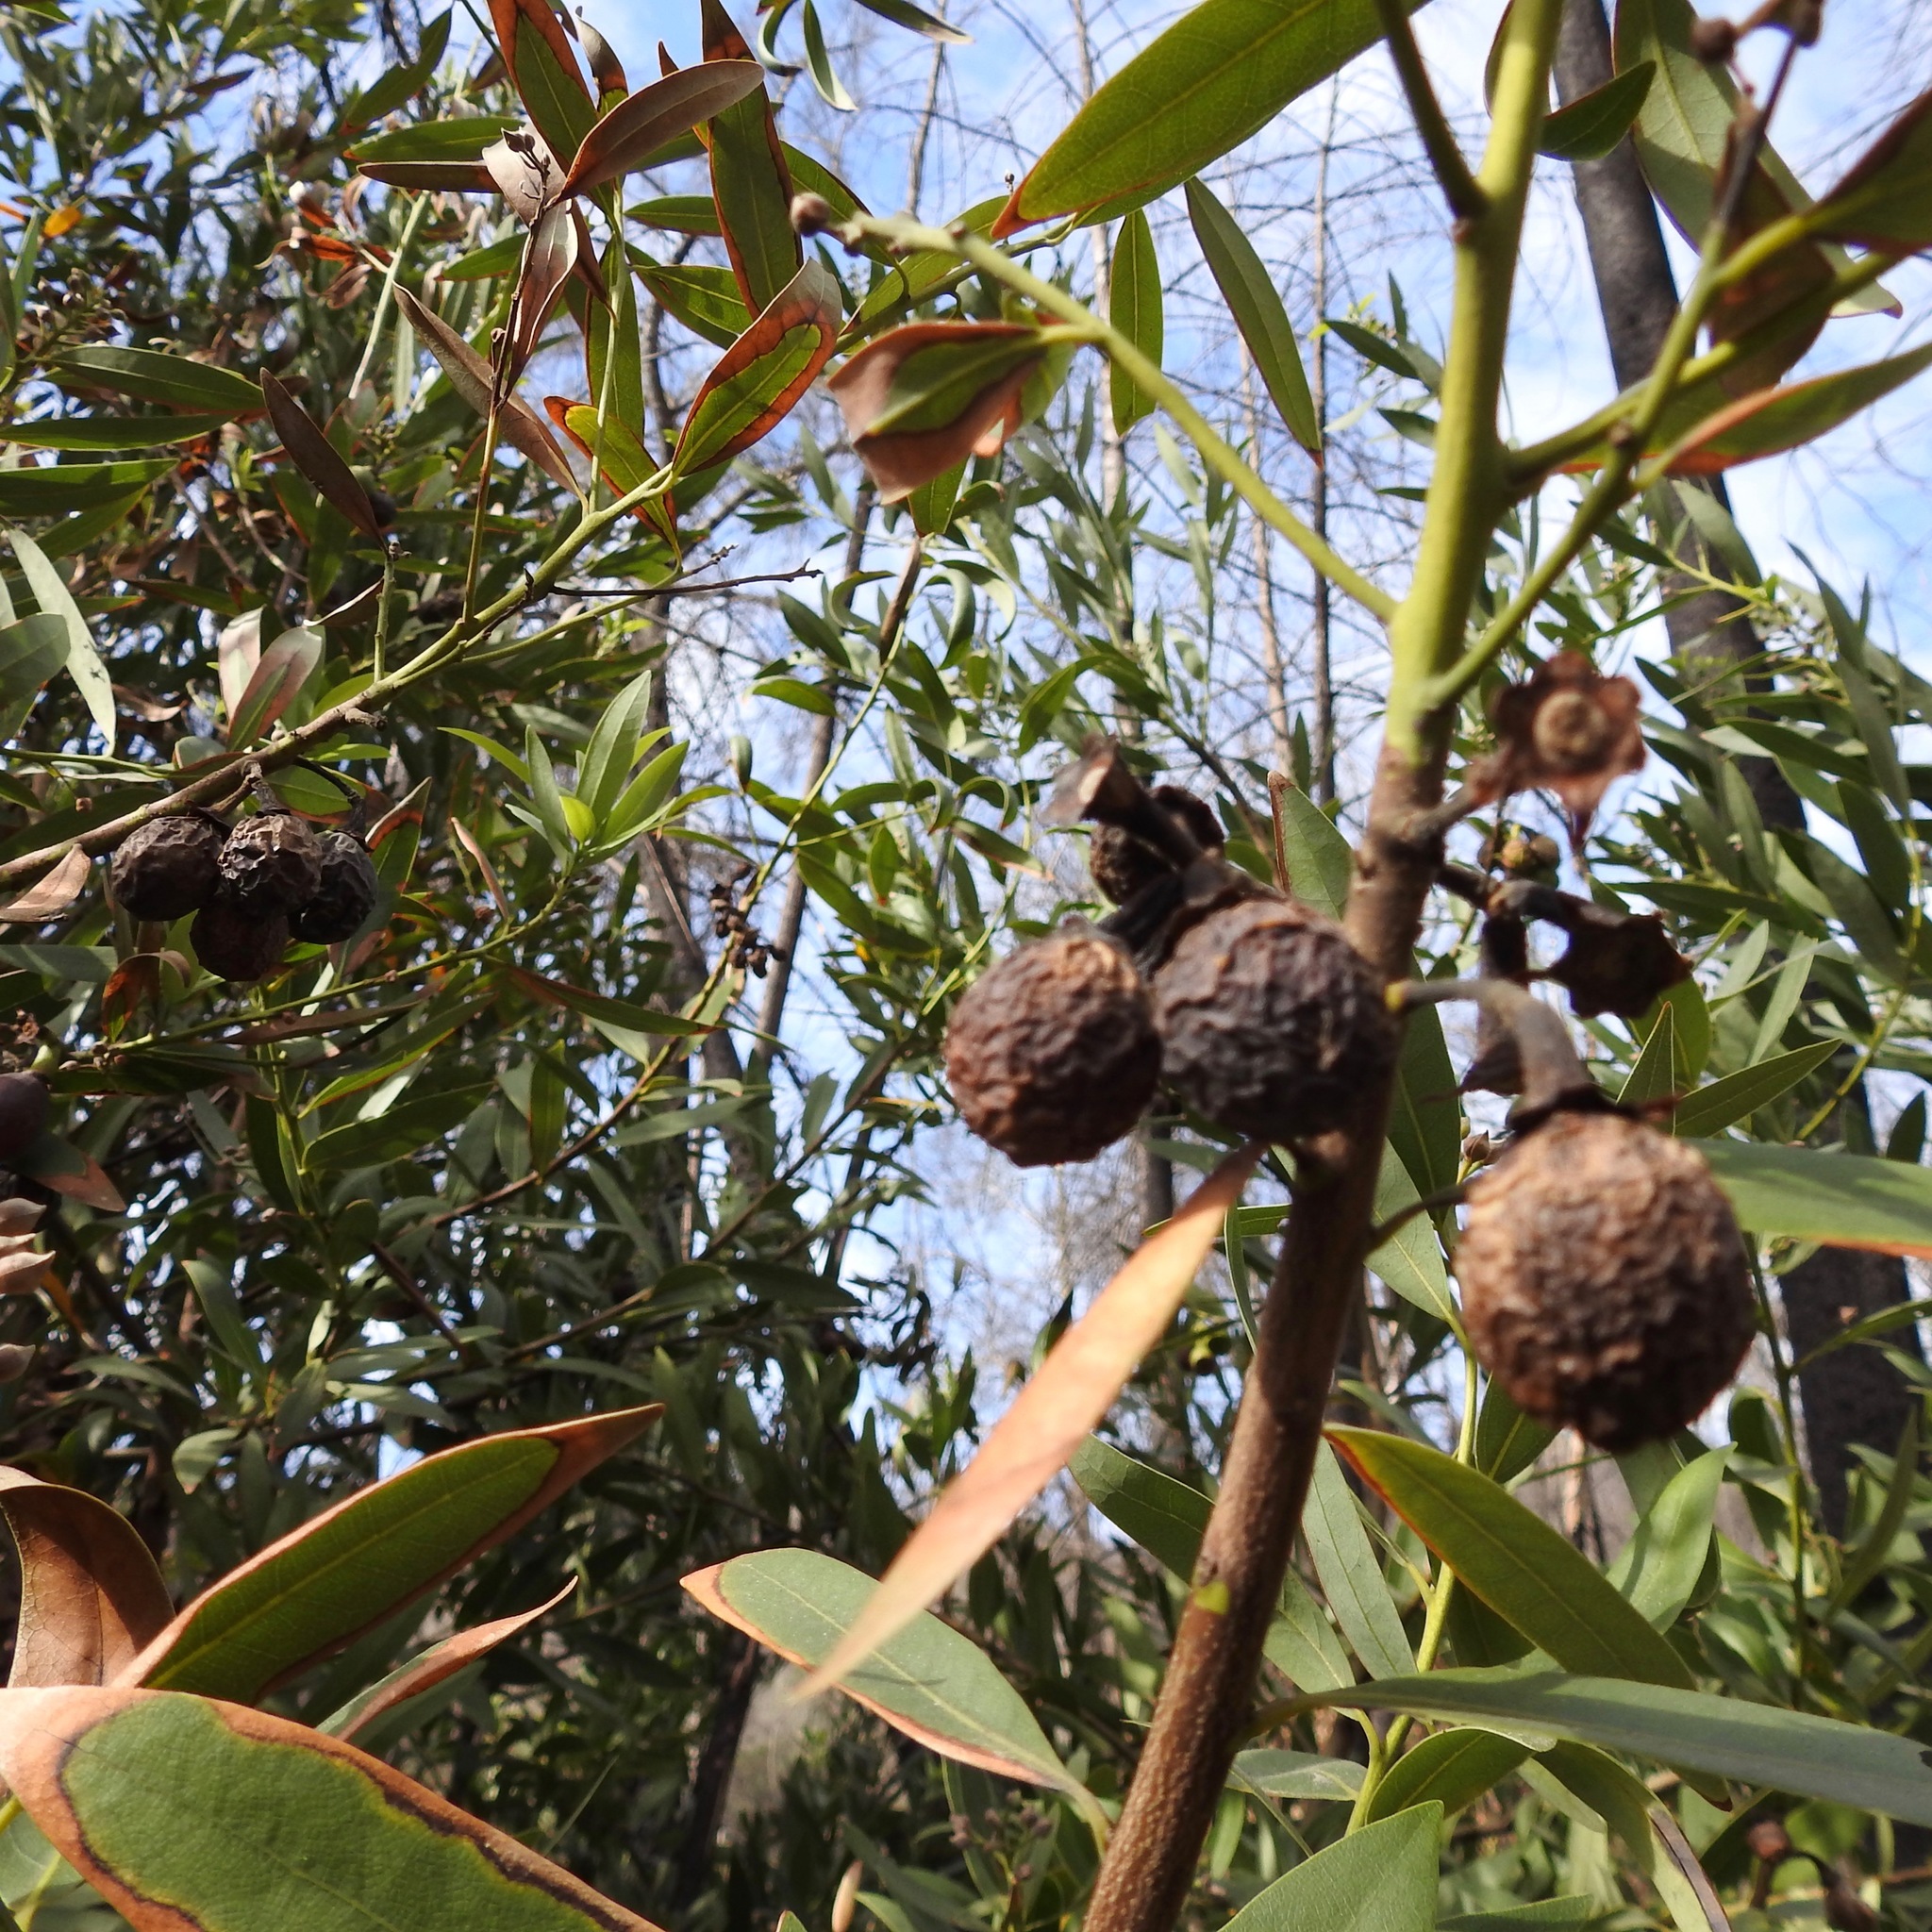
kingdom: Plantae
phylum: Tracheophyta
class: Magnoliopsida
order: Laurales
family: Lauraceae
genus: Umbellularia
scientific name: Umbellularia californica
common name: California bay
